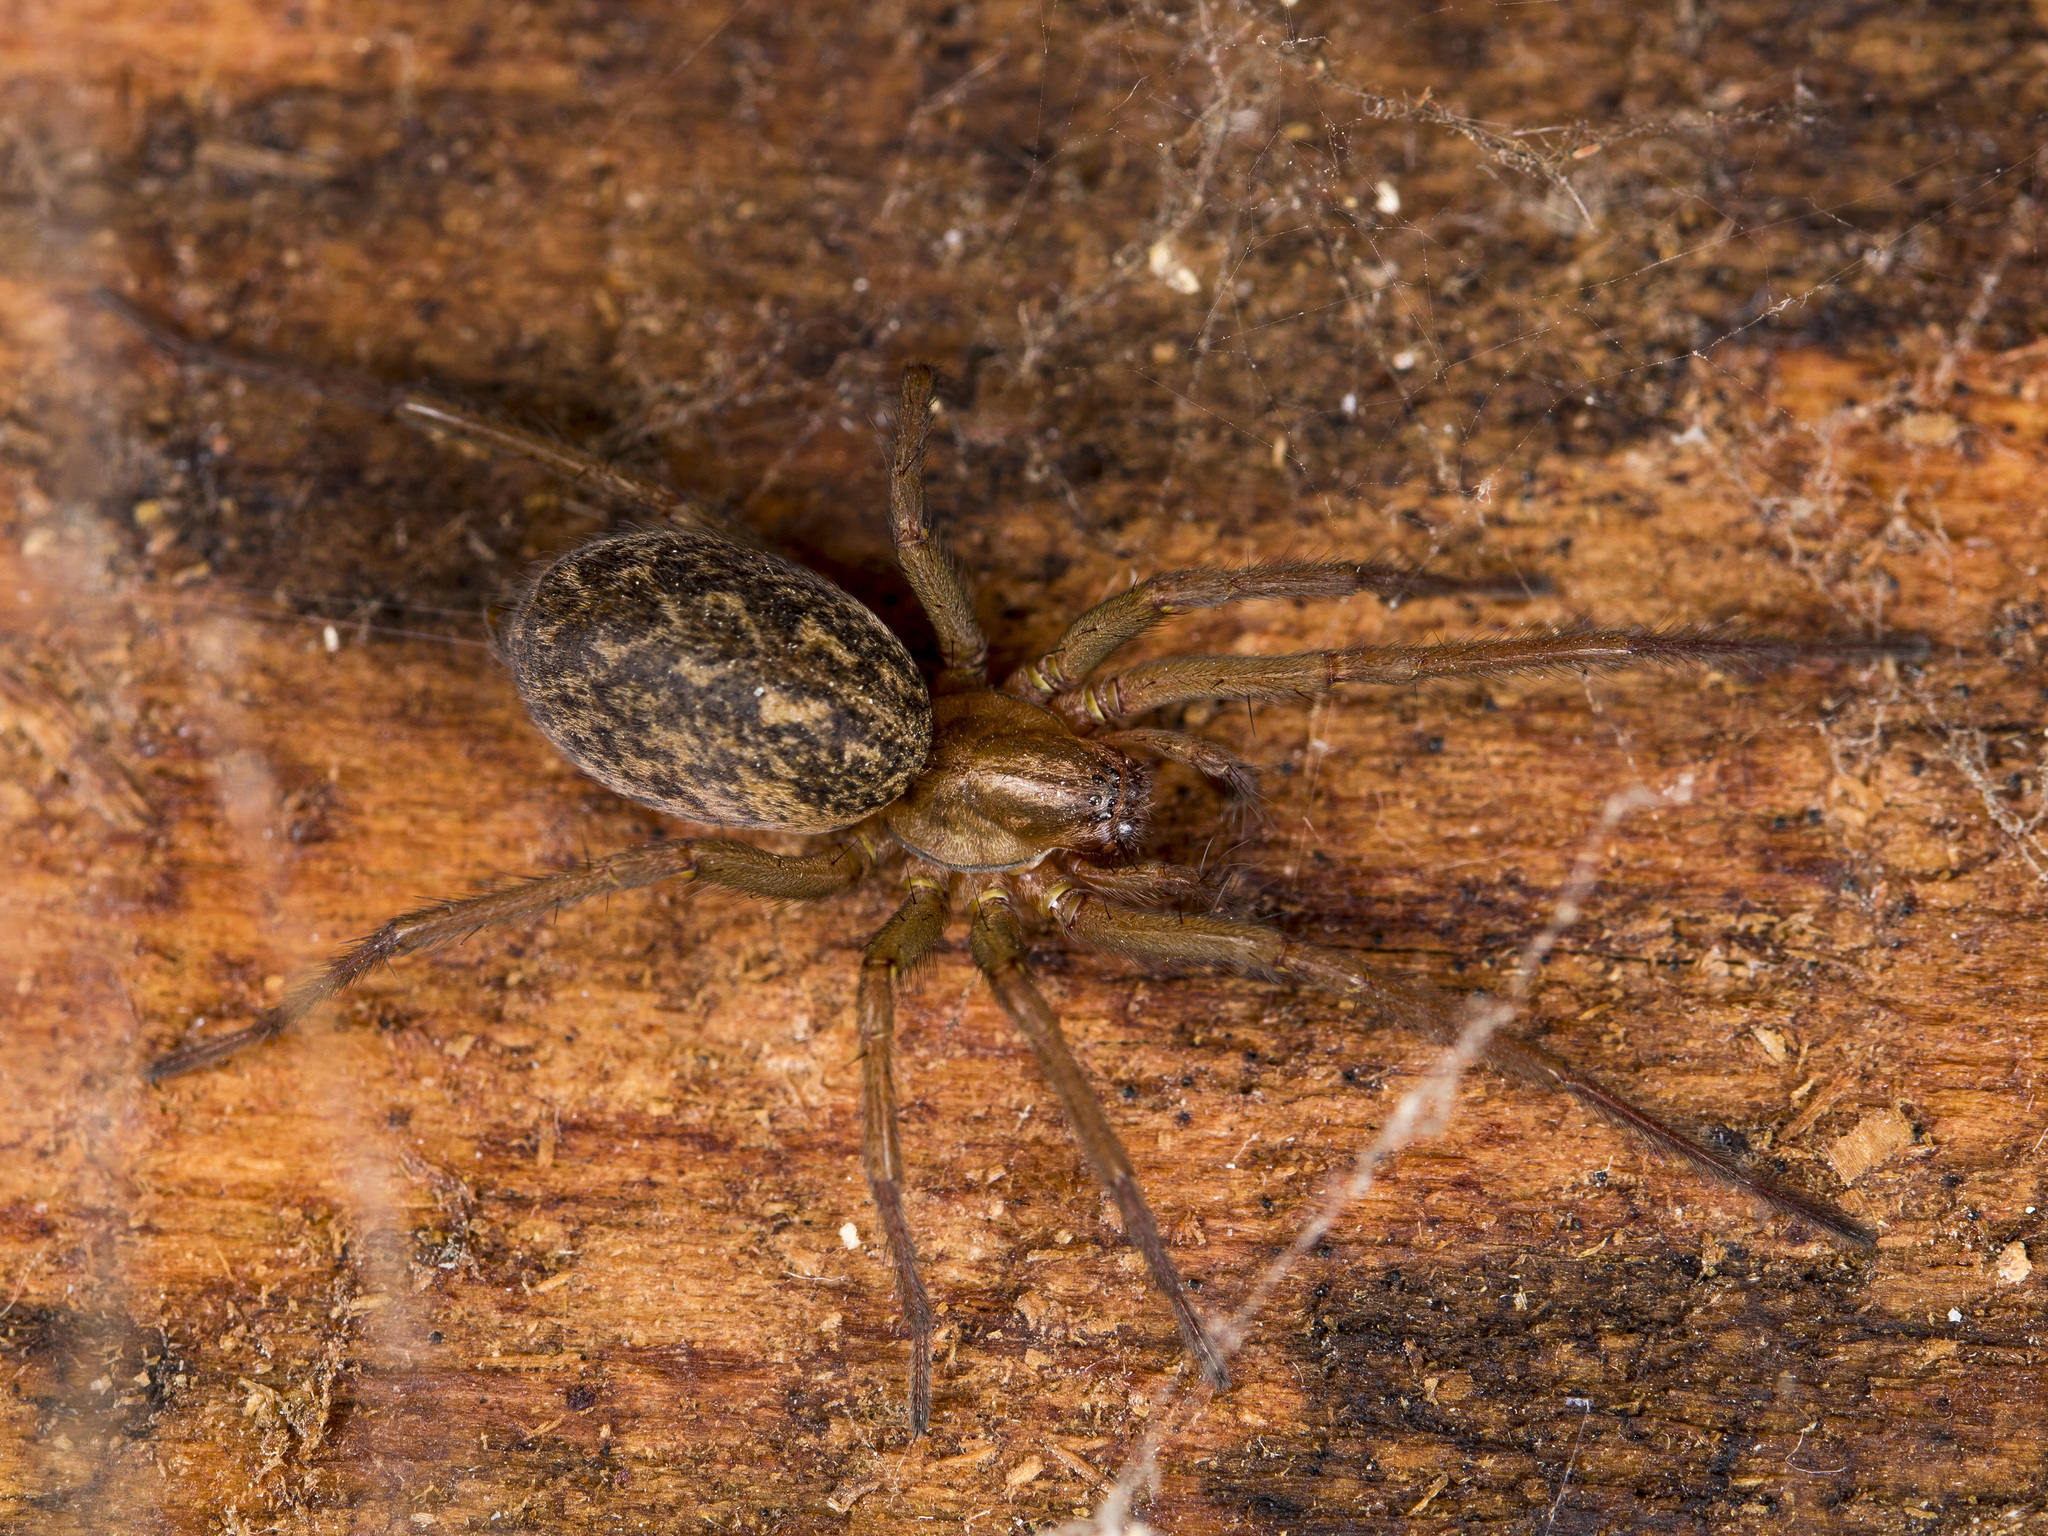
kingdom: Animalia
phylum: Arthropoda
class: Arachnida
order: Araneae
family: Agelenidae
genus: Eratigena
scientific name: Eratigena agrestis
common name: Hobo spider
